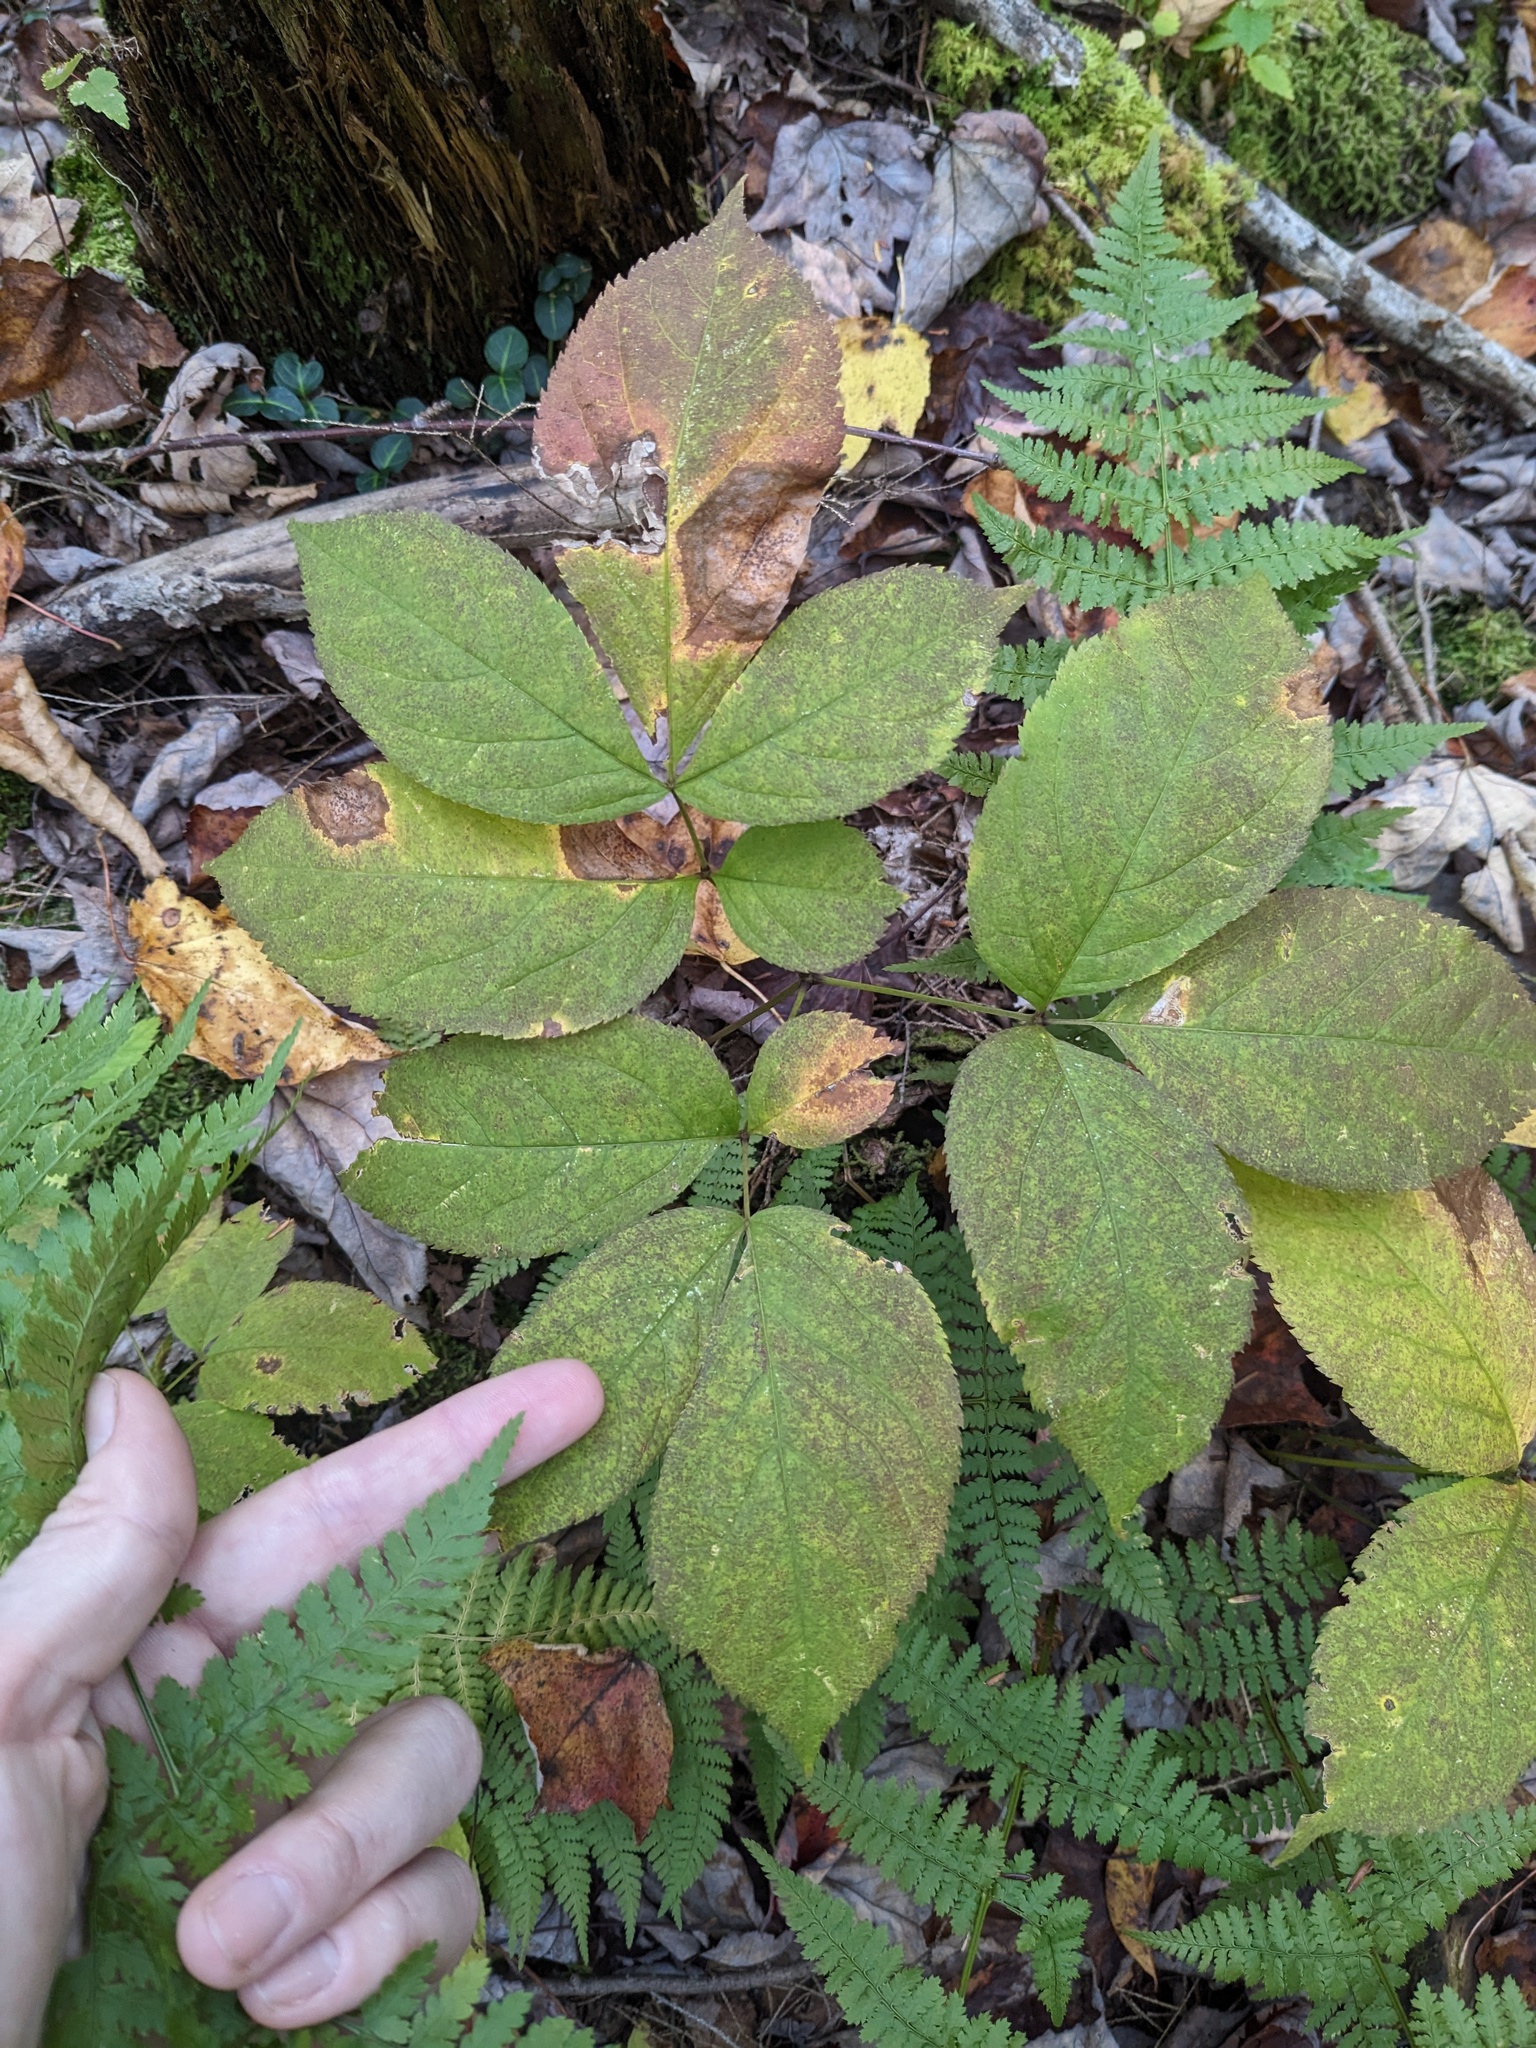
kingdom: Plantae
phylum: Tracheophyta
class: Magnoliopsida
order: Apiales
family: Araliaceae
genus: Aralia
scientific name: Aralia nudicaulis
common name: Wild sarsaparilla
